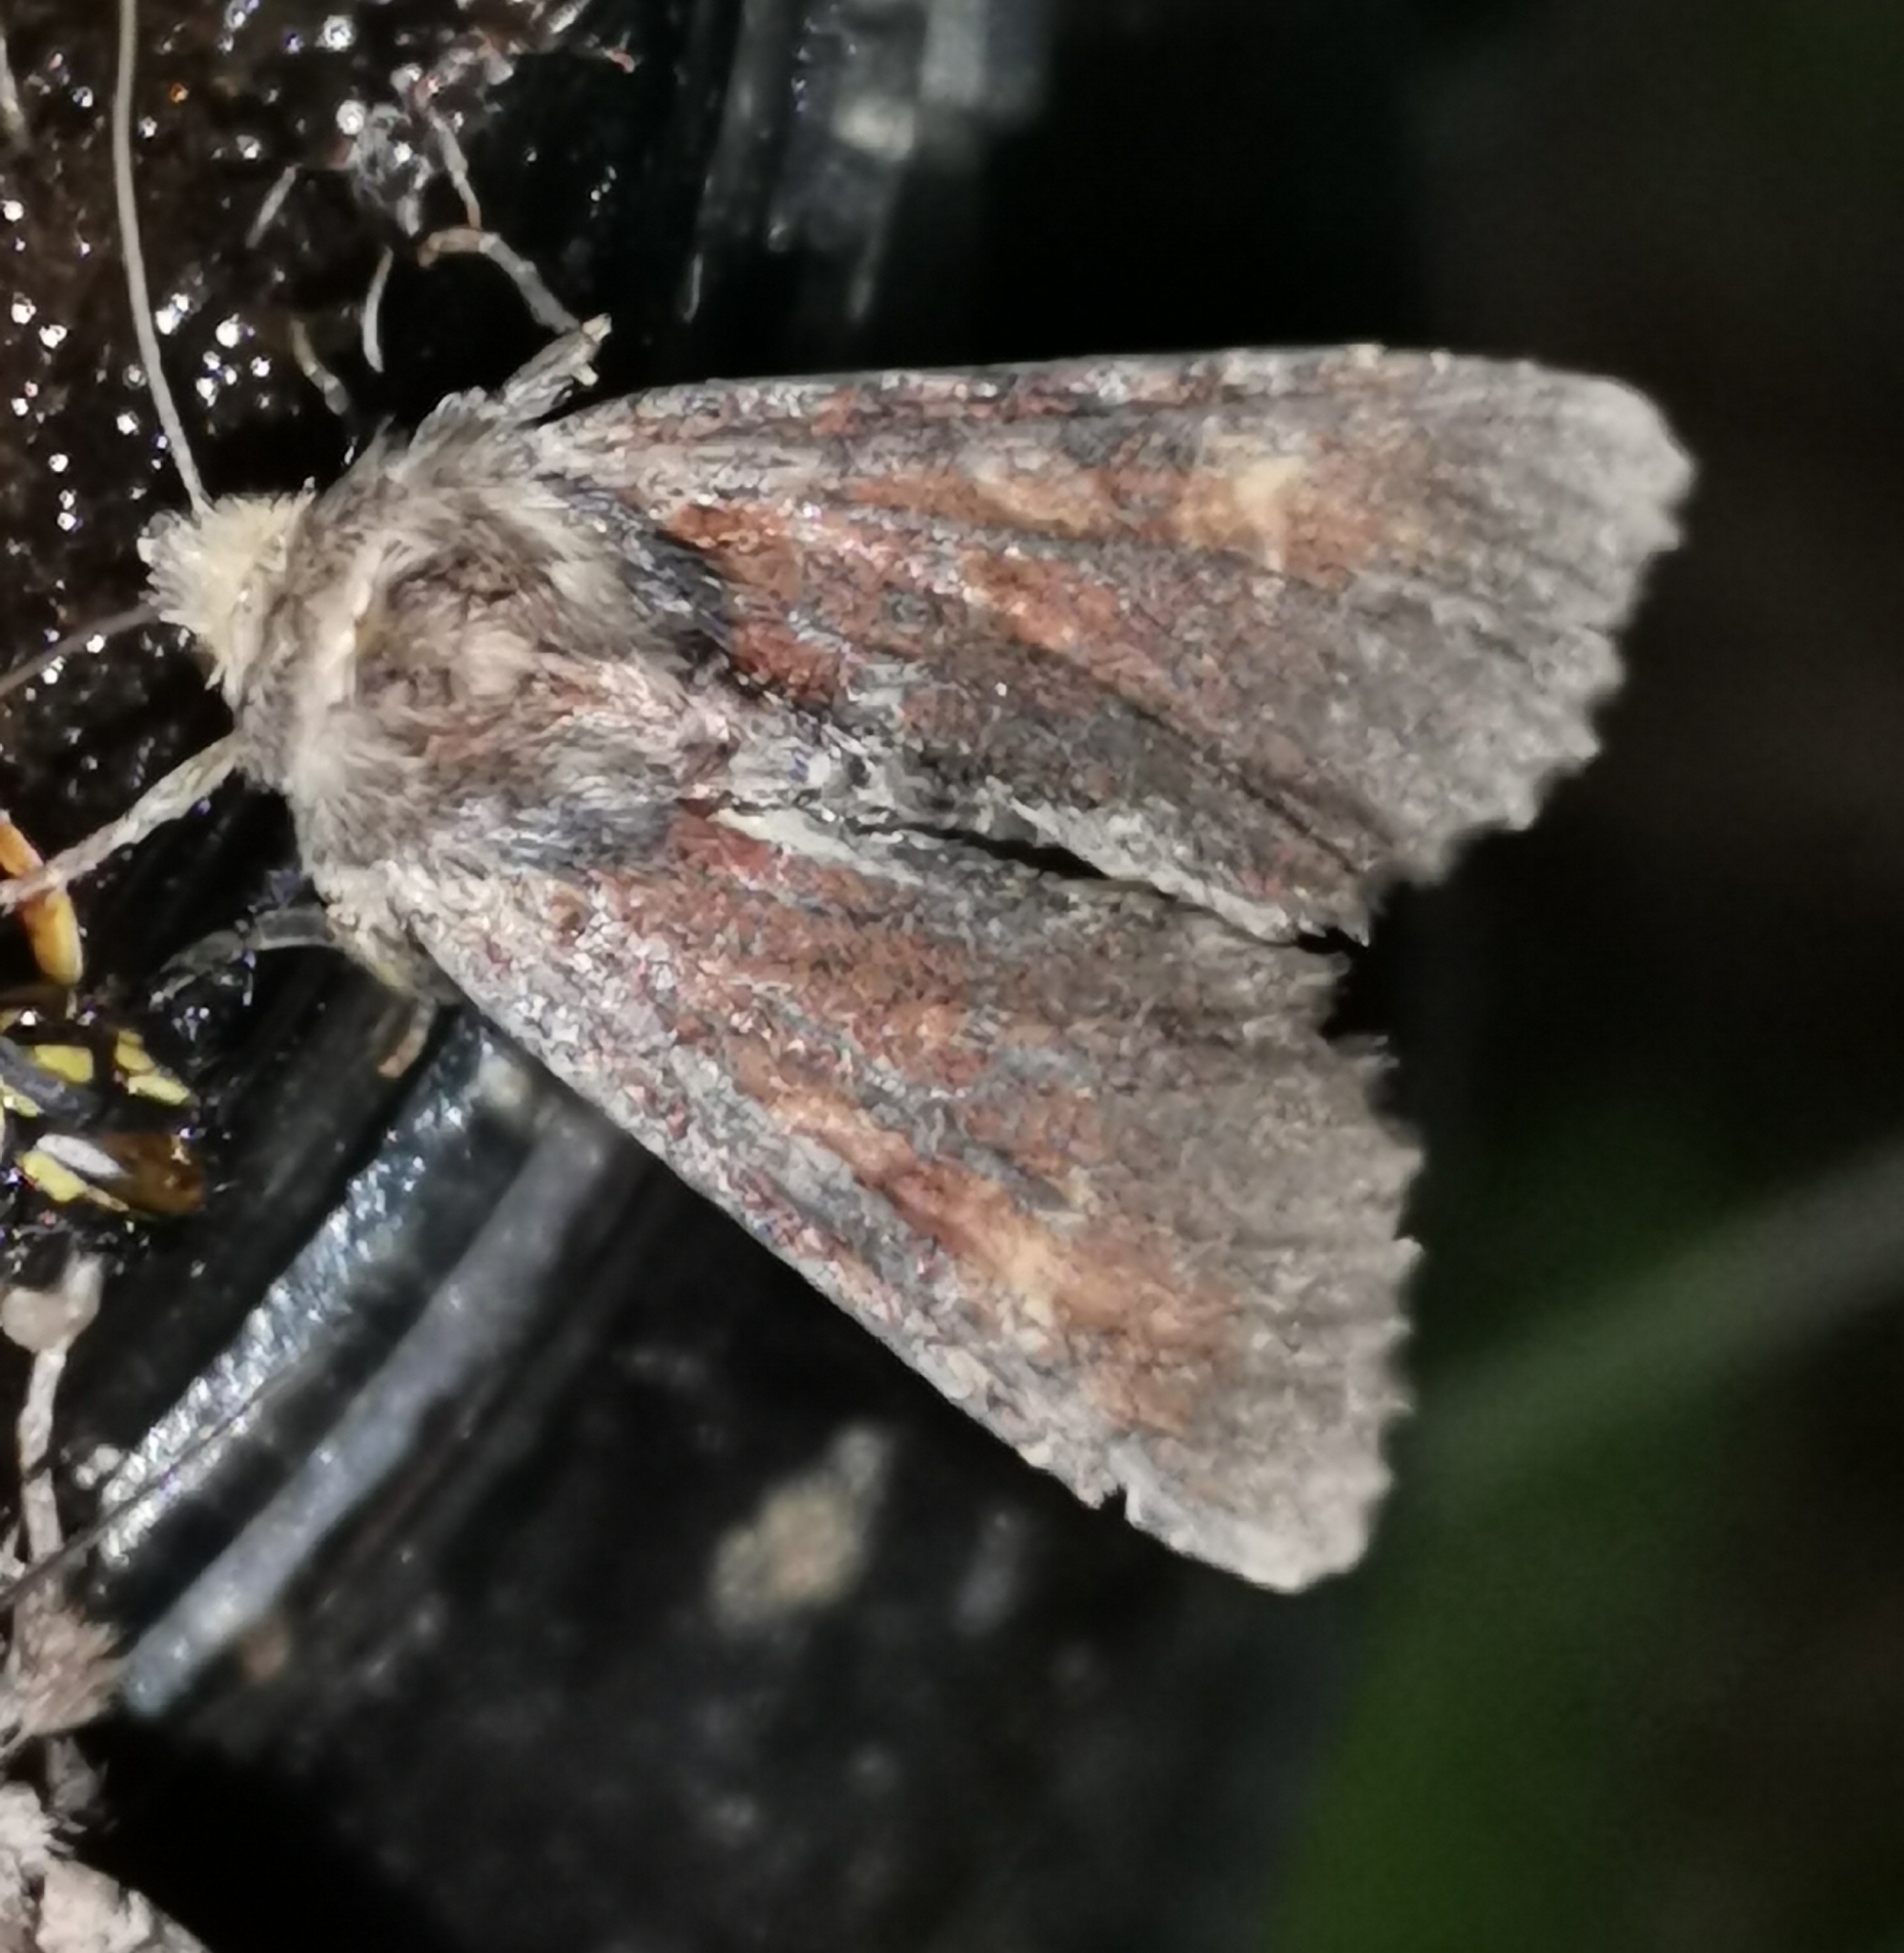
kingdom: Animalia
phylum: Arthropoda
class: Insecta
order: Lepidoptera
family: Noctuidae
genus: Apamea
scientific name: Apamea crenata
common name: Clouded-bordered brindle
